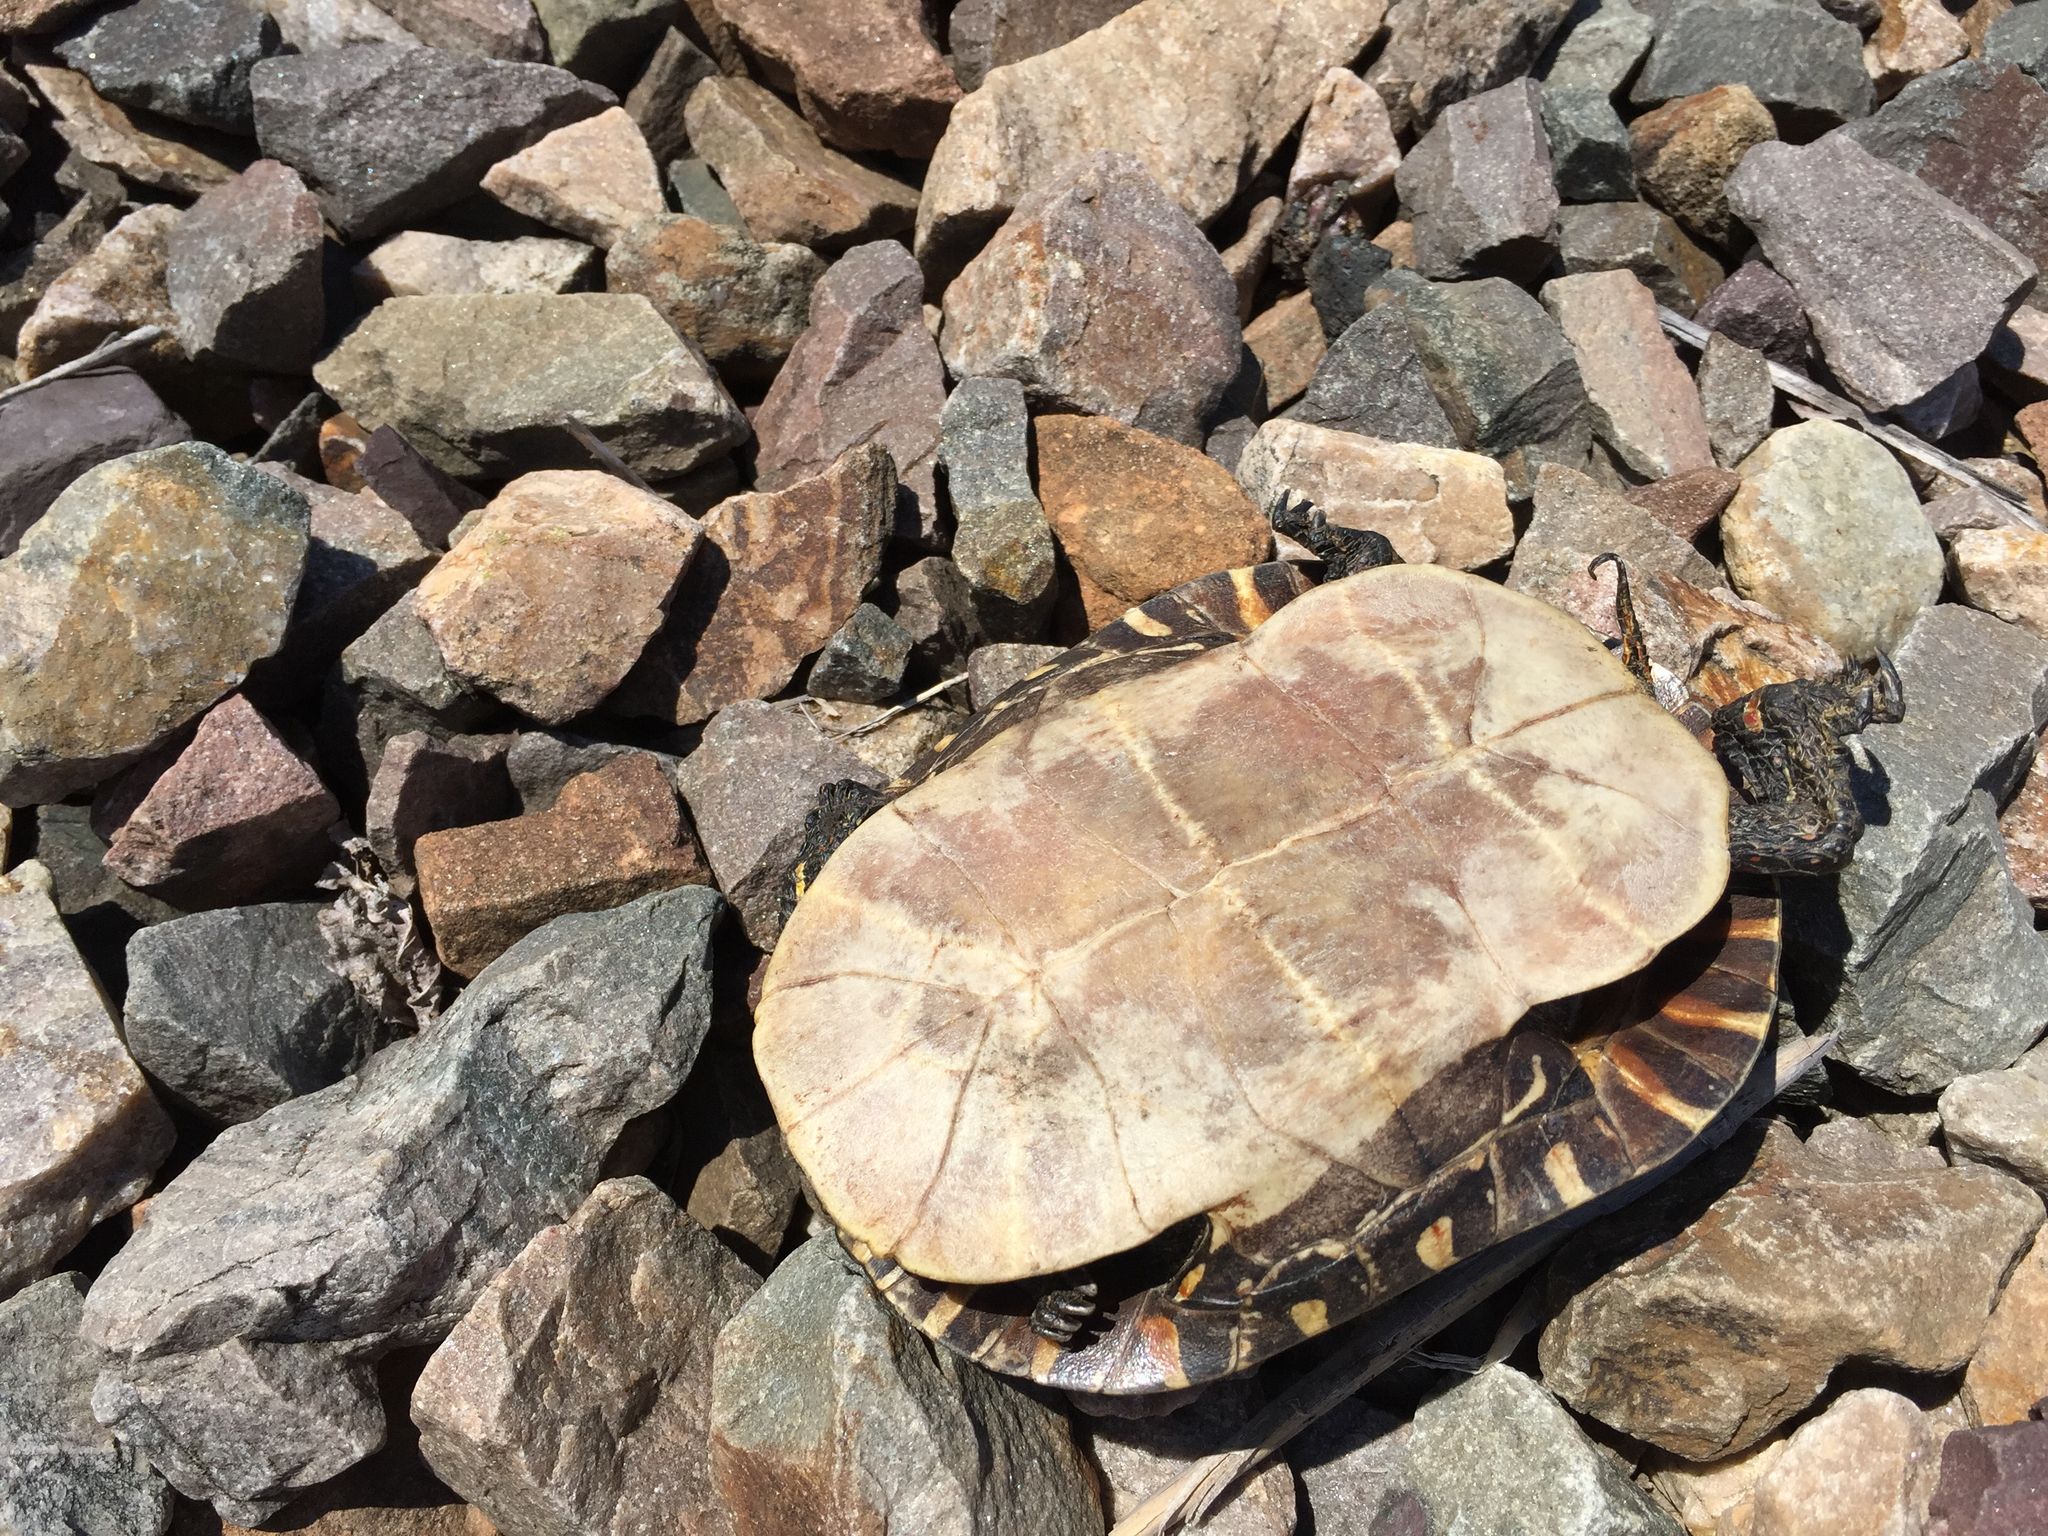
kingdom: Animalia
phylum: Chordata
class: Testudines
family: Emydidae
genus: Chrysemys
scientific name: Chrysemys picta
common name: Painted turtle
